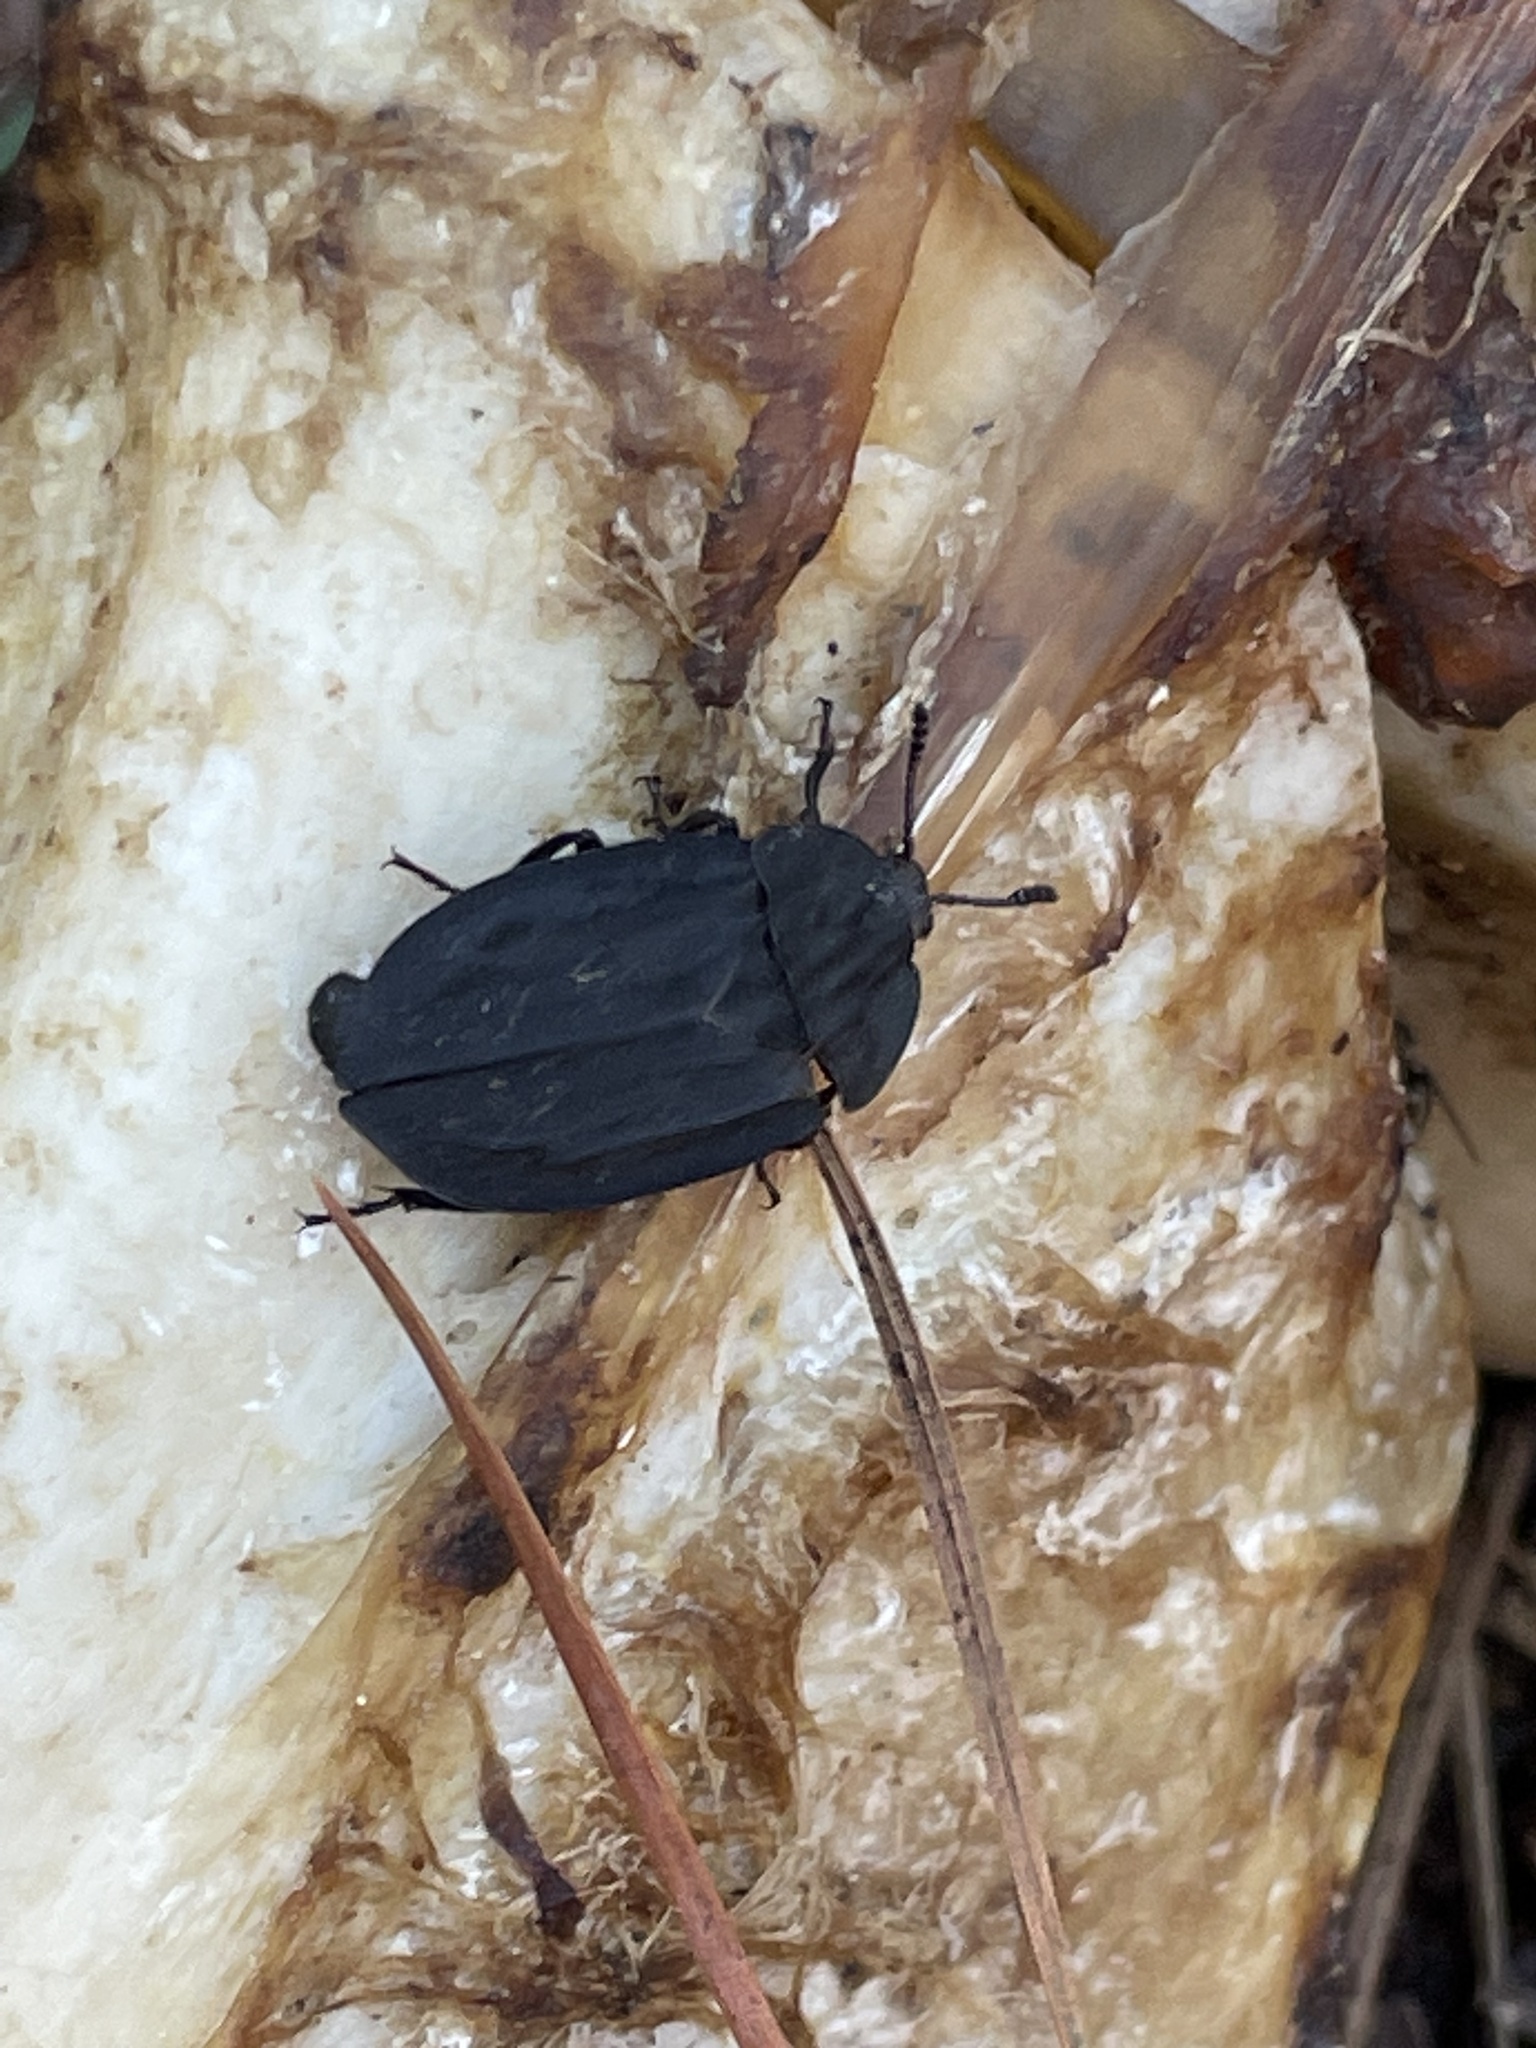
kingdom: Animalia
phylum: Arthropoda
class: Insecta
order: Coleoptera
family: Staphylinidae
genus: Oiceoptoma
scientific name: Oiceoptoma inaequale
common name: Ridged carrion beetle
